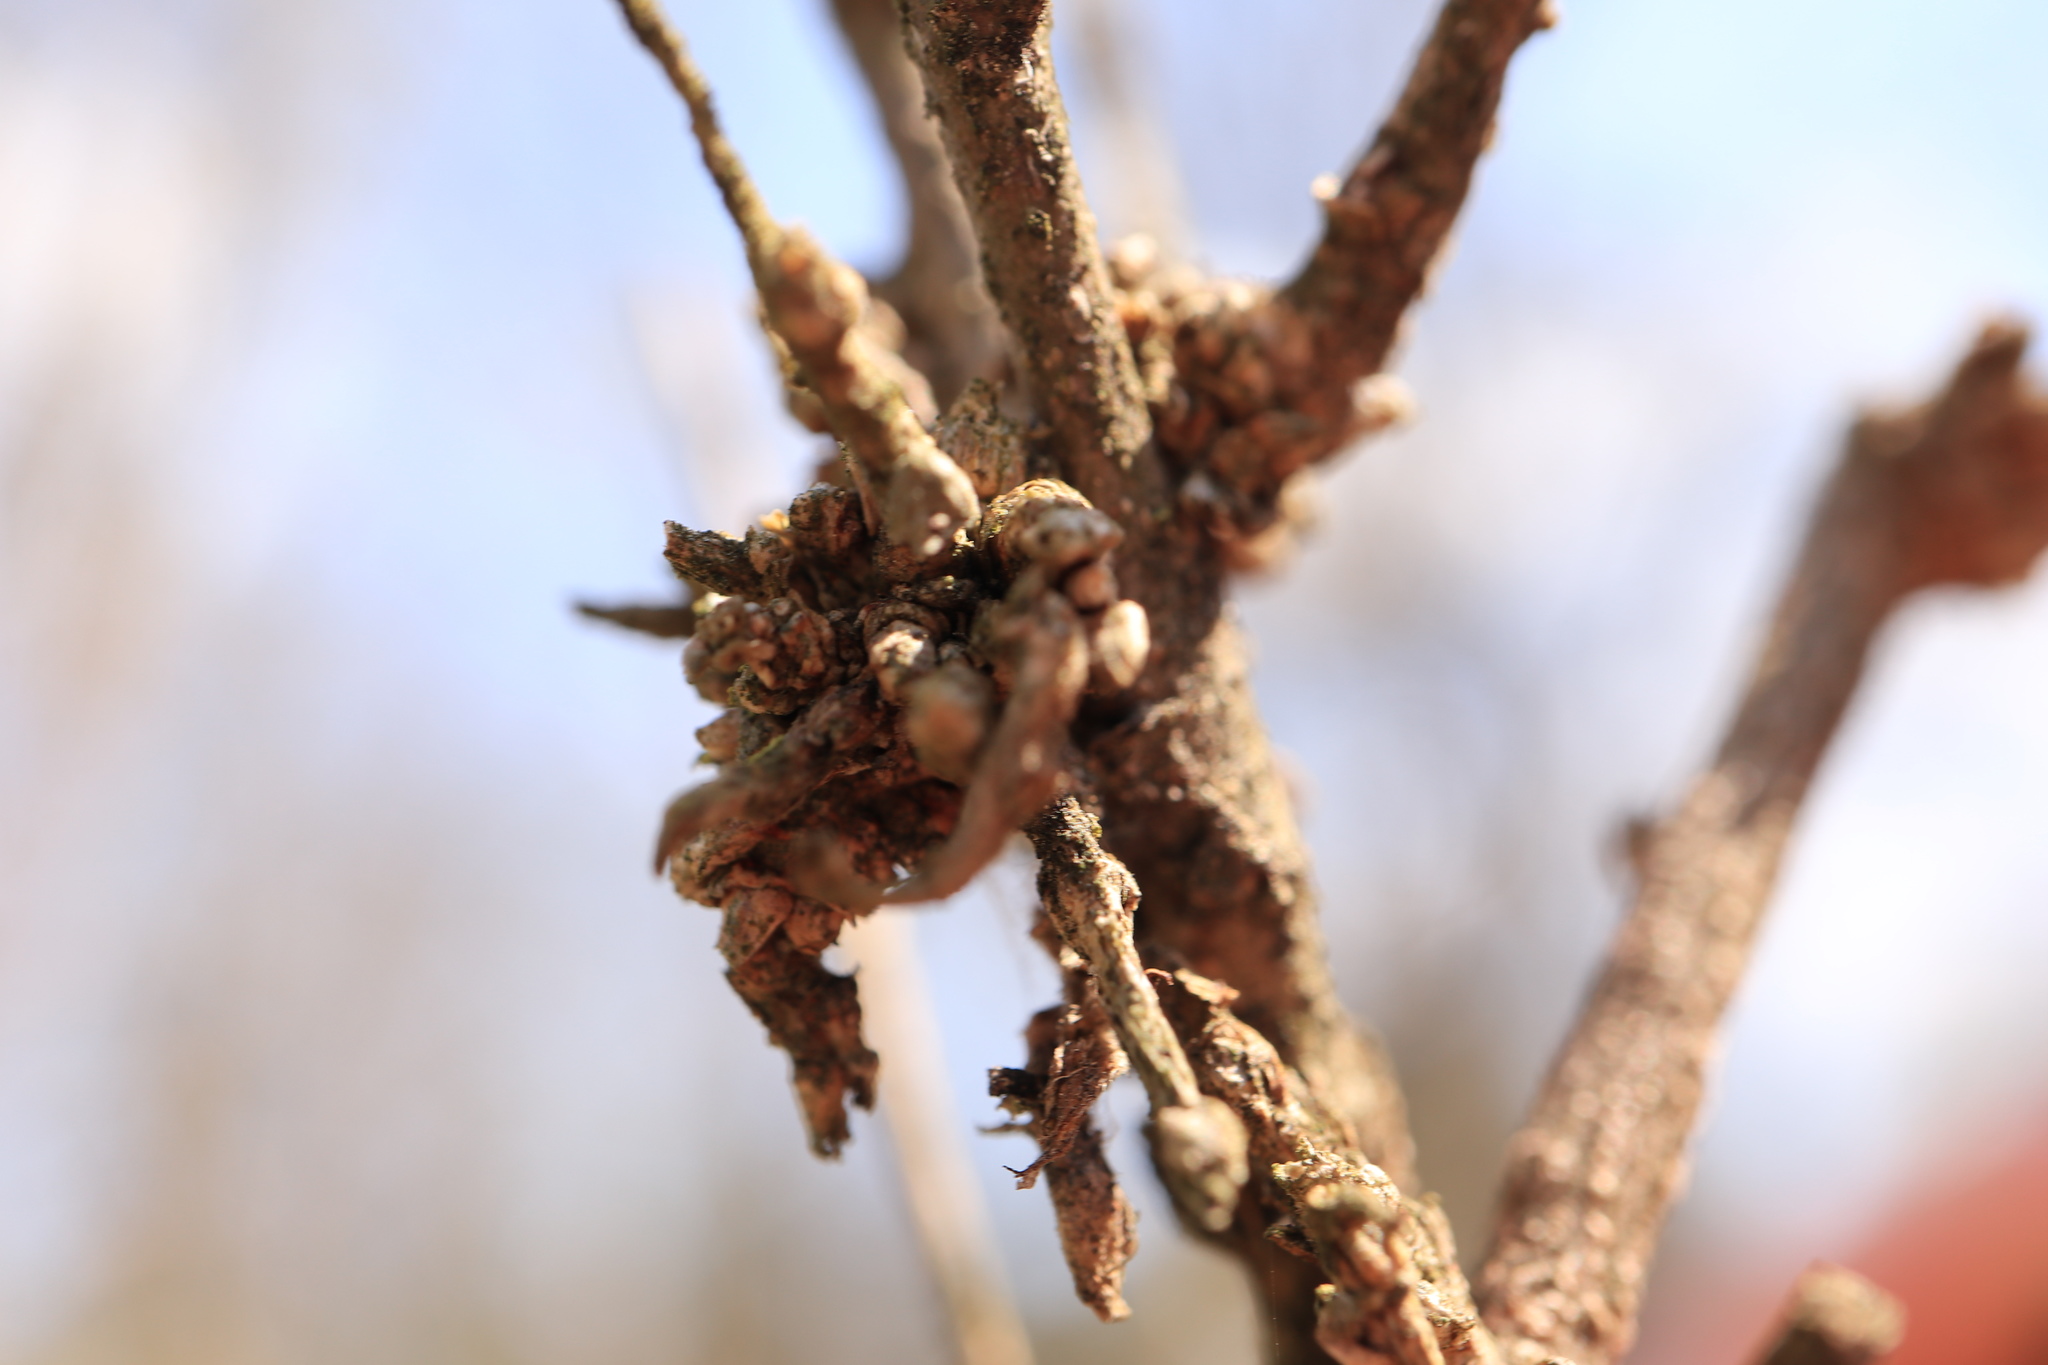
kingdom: Animalia
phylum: Arthropoda
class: Arachnida
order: Trombidiformes
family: Eriophyidae
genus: Aceria
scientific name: Aceria
